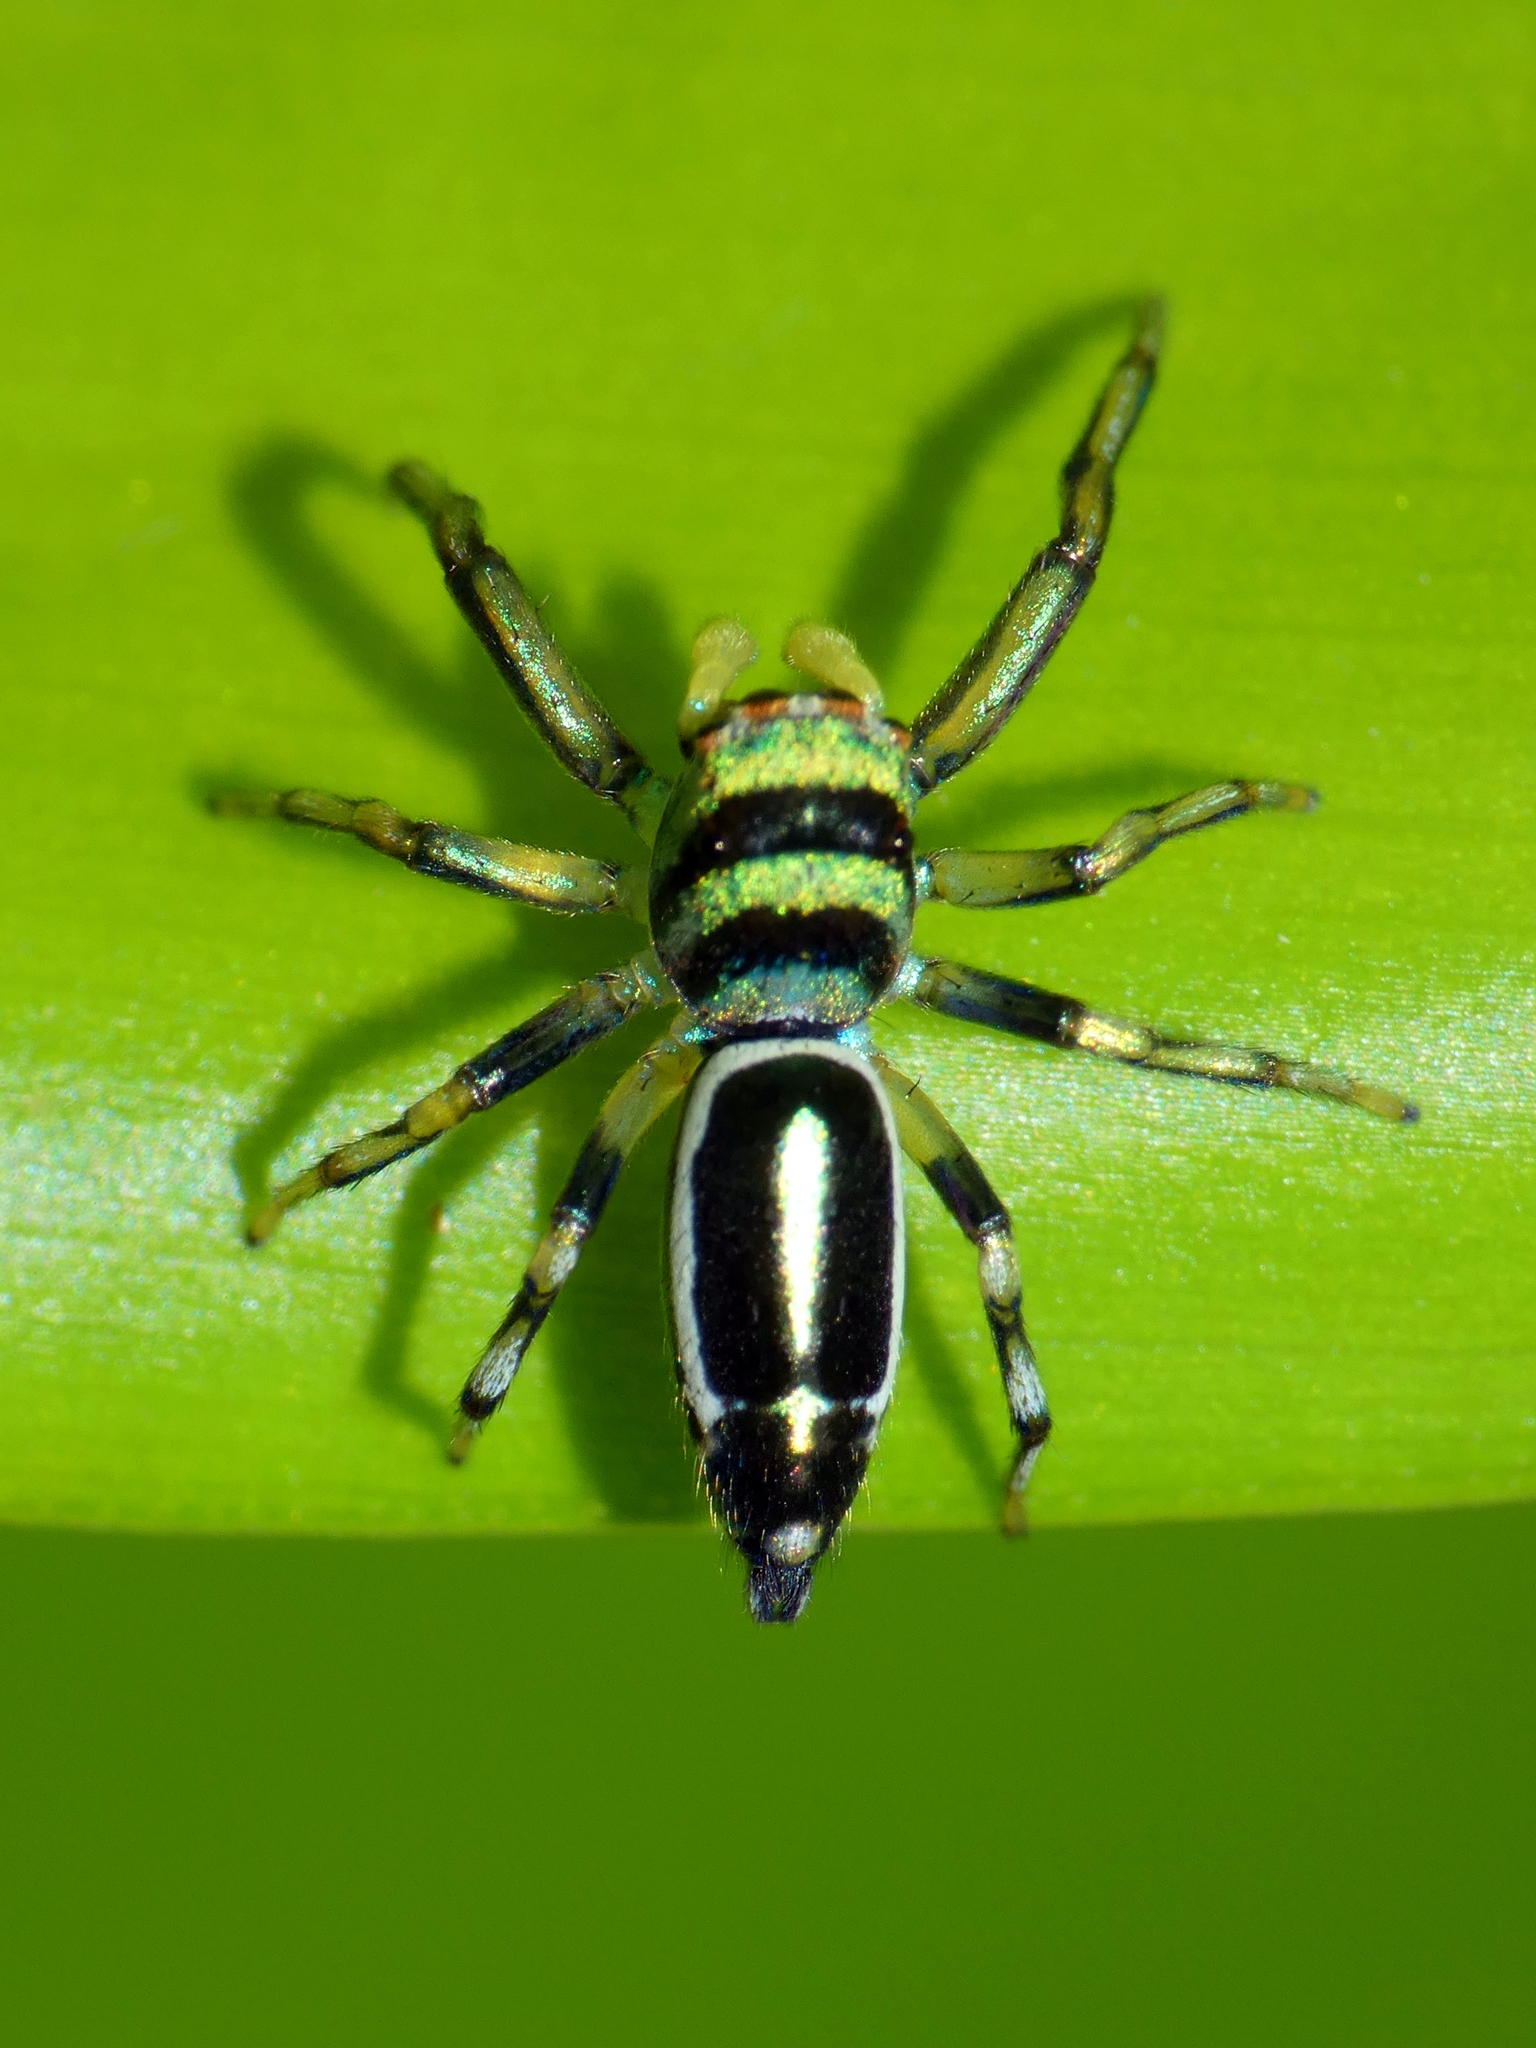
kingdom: Animalia
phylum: Arthropoda
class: Arachnida
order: Araneae
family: Salticidae
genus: Cosmophasis
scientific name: Cosmophasis micarioides
